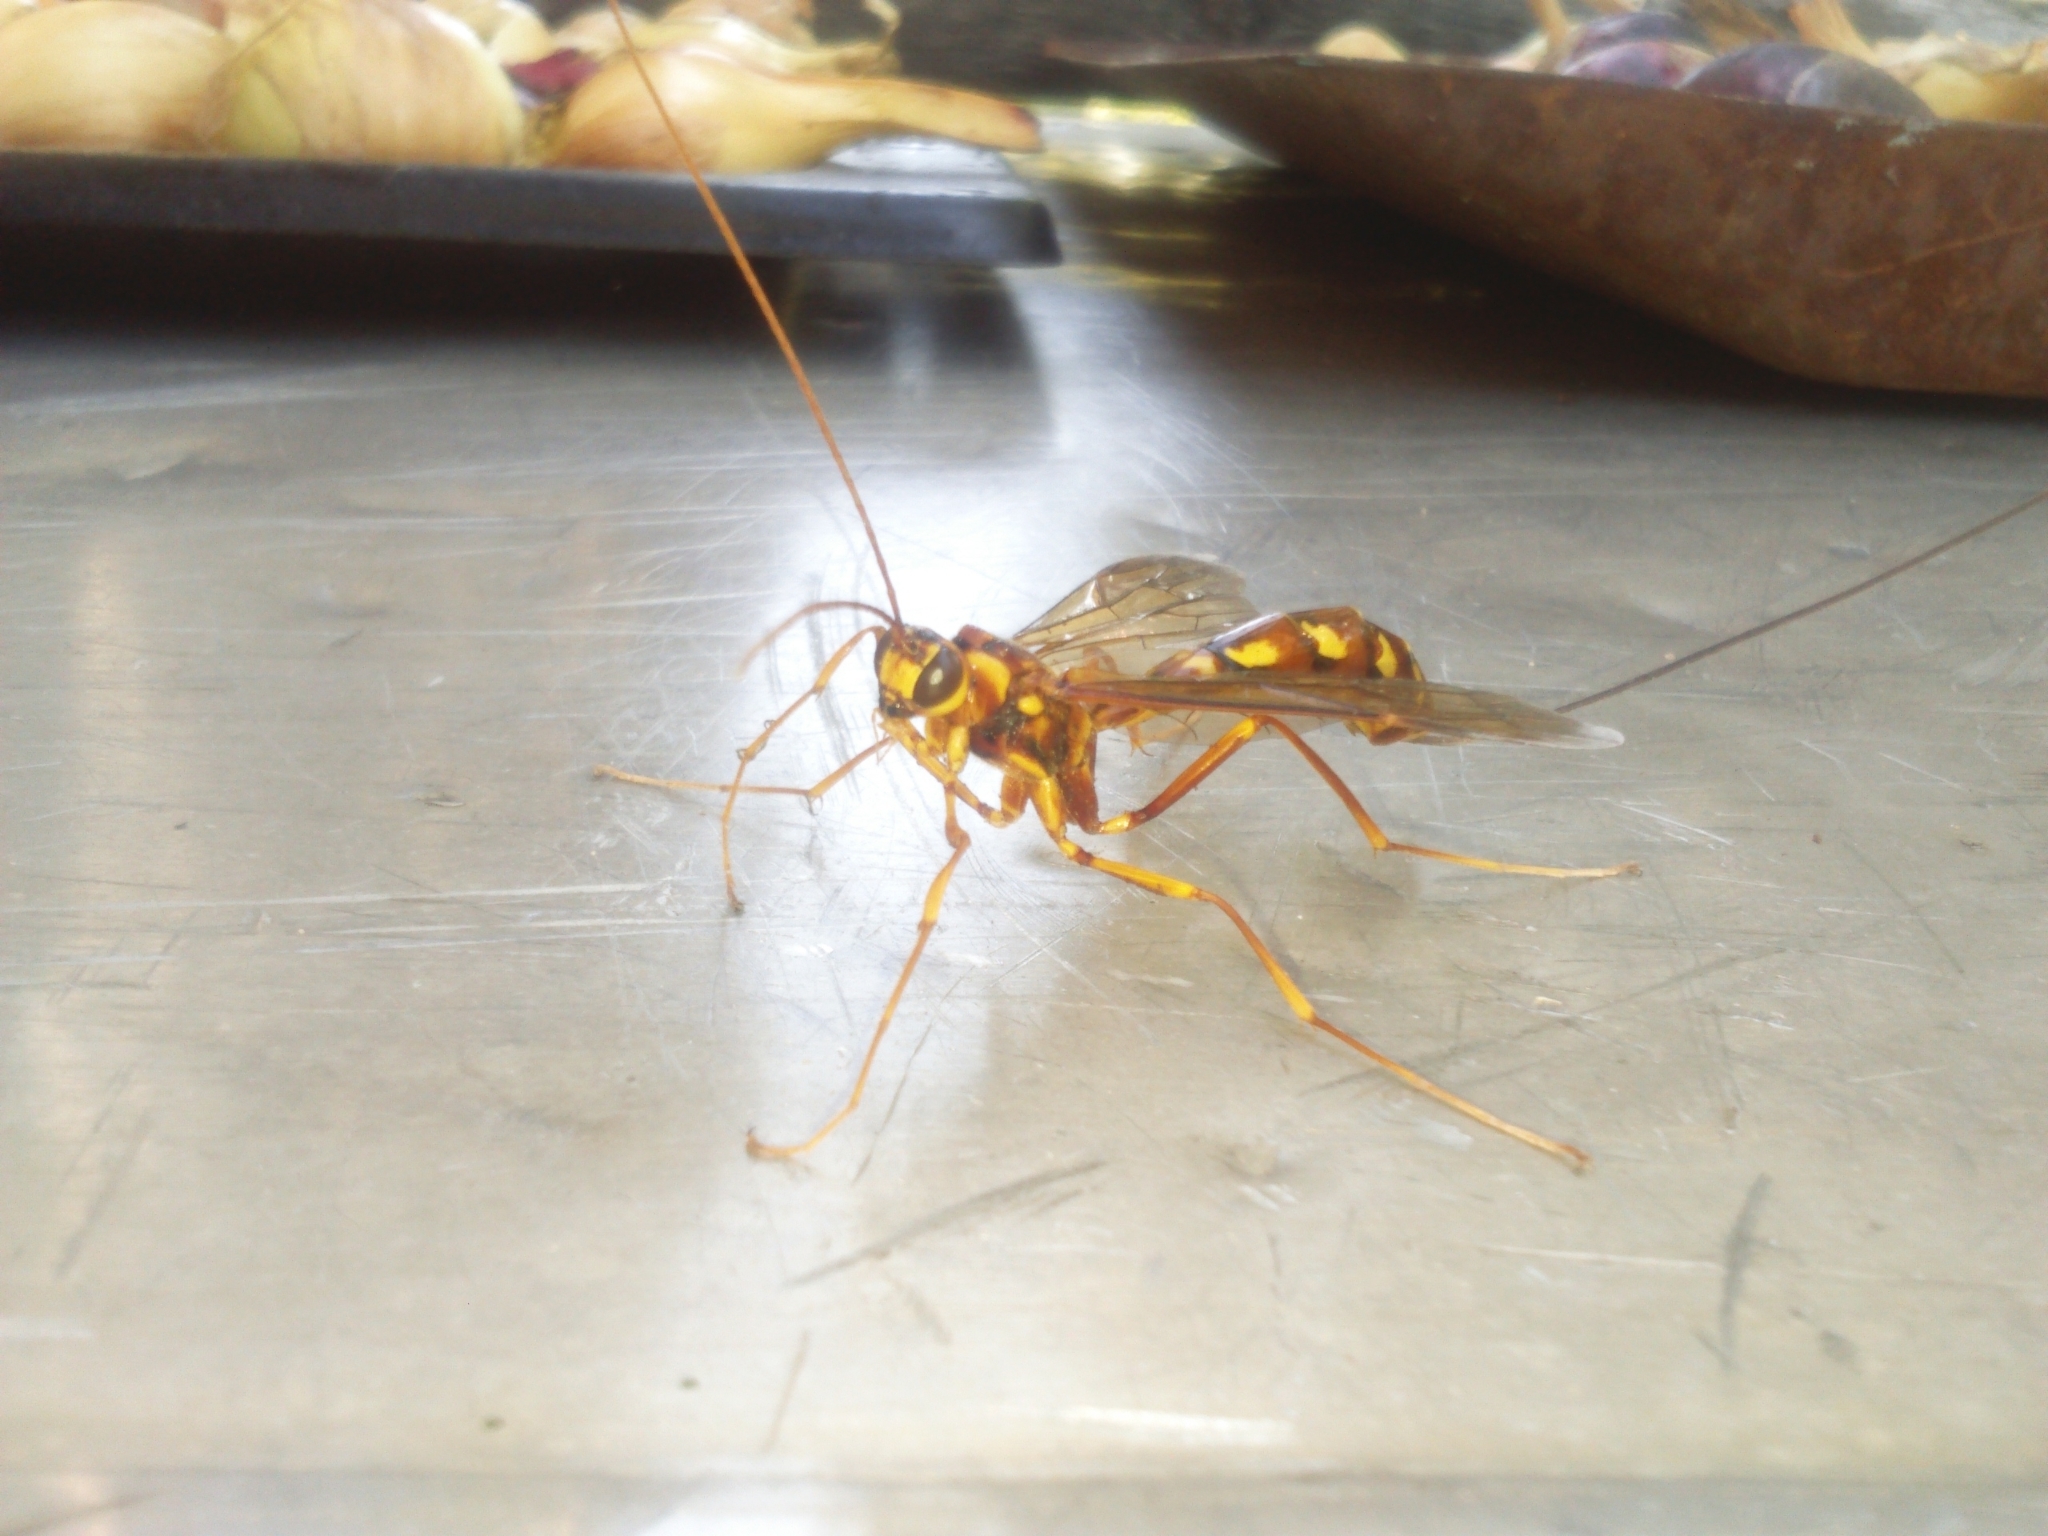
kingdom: Animalia
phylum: Arthropoda
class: Insecta
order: Hymenoptera
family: Ichneumonidae
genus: Megarhyssa
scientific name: Megarhyssa perlata
